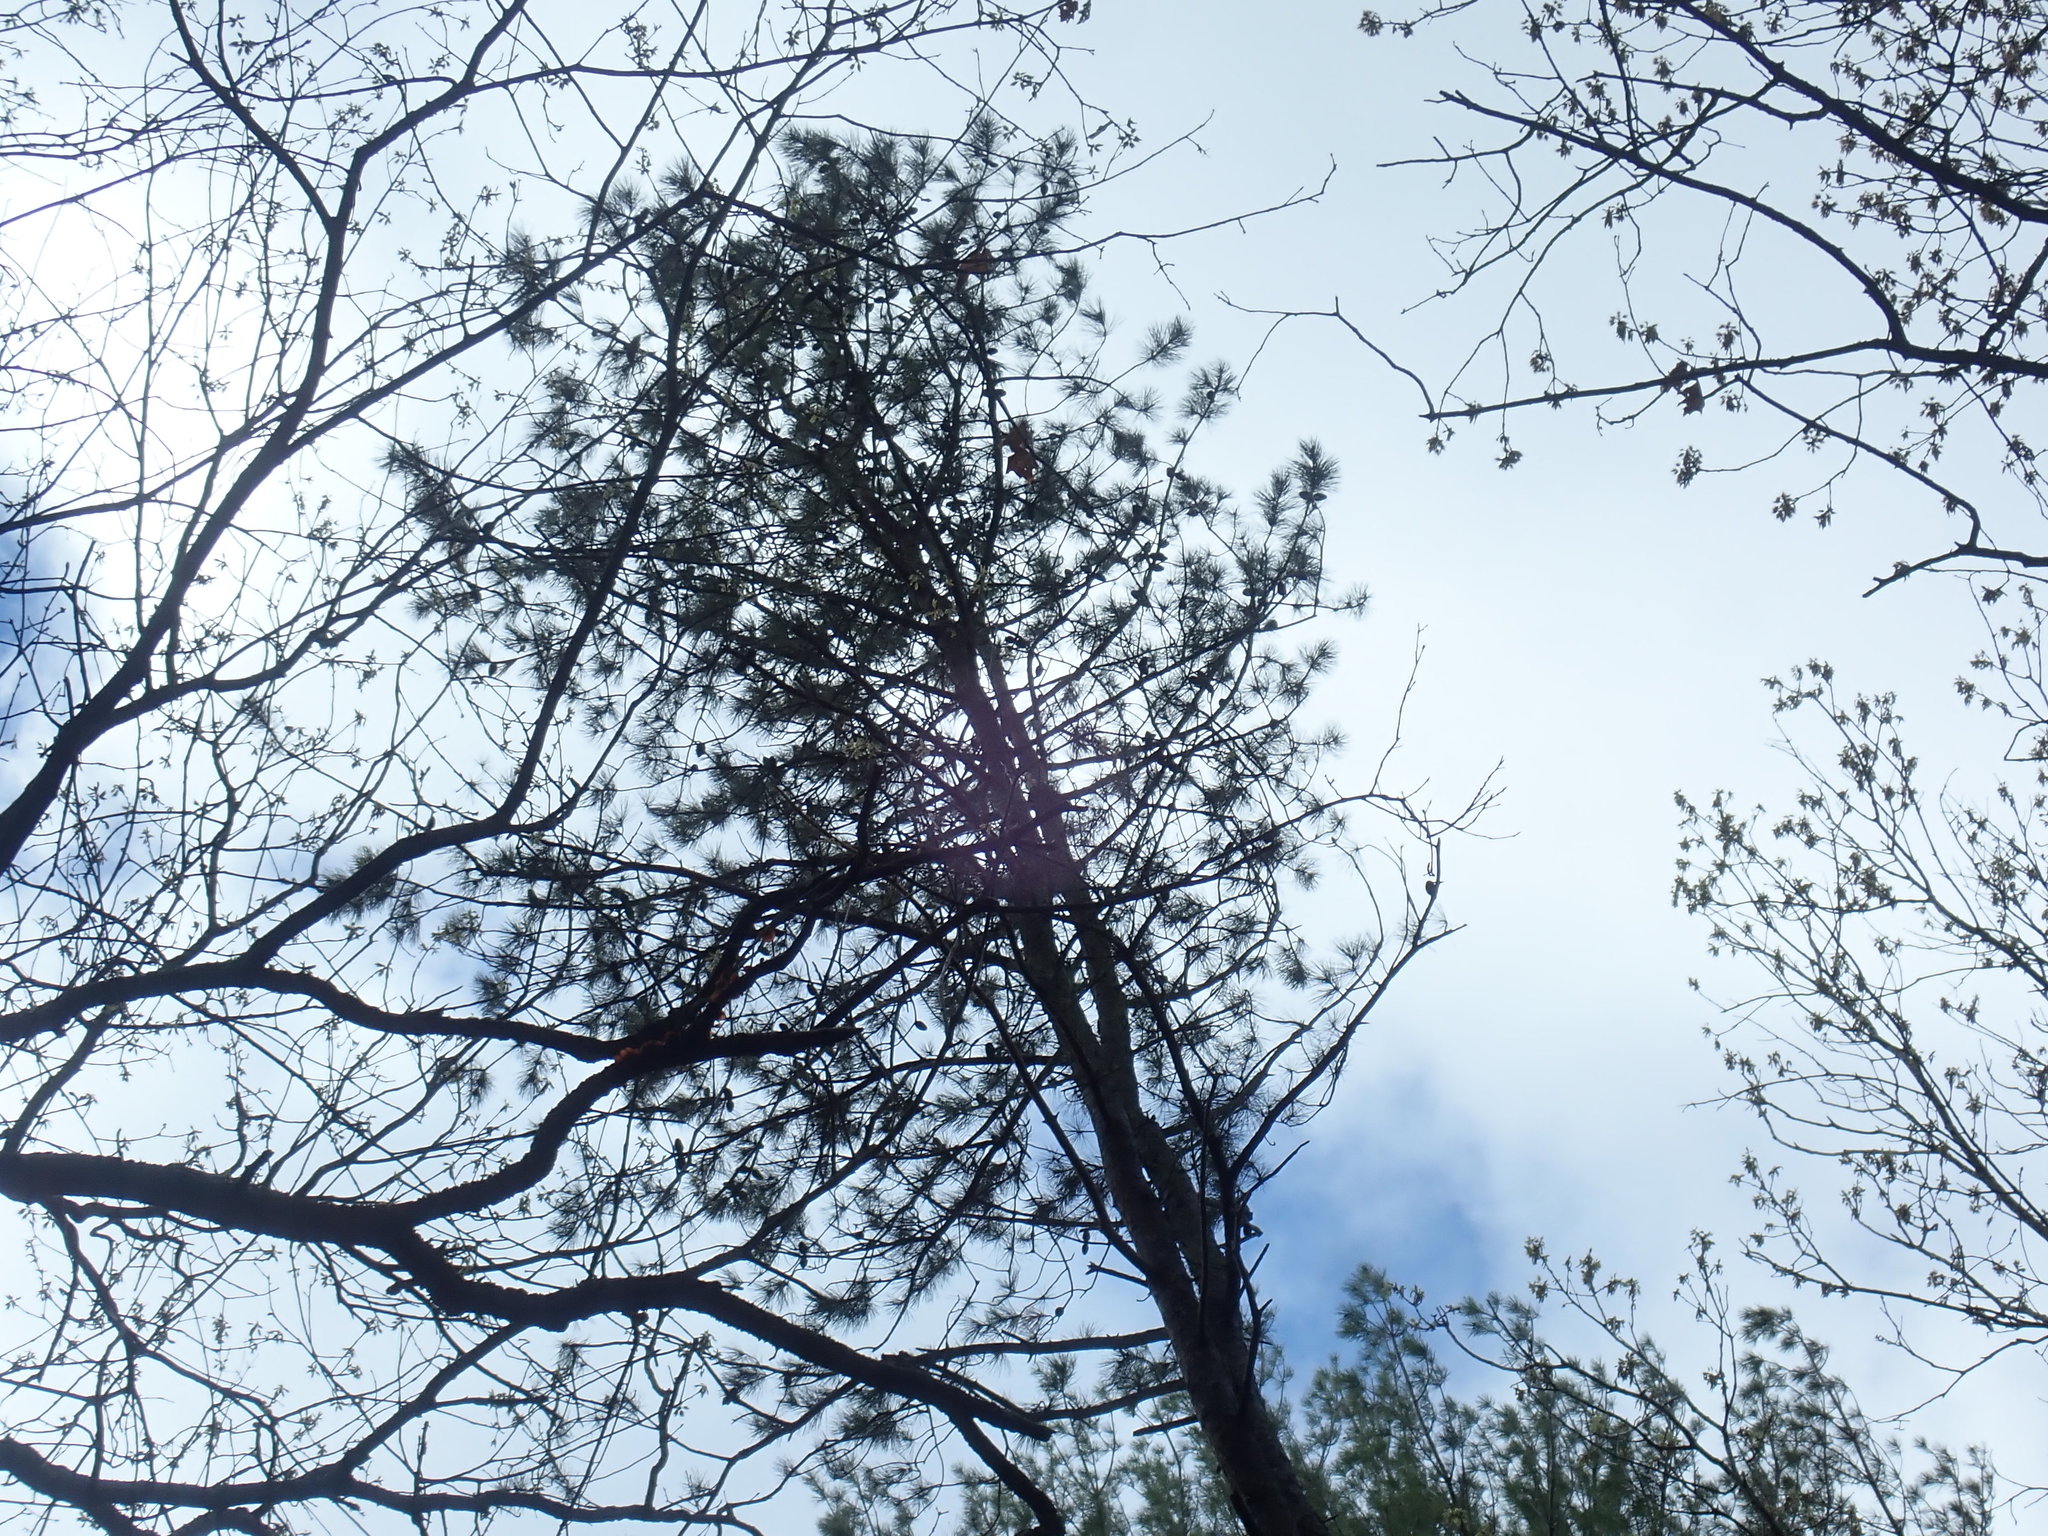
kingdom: Plantae
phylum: Tracheophyta
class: Pinopsida
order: Pinales
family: Pinaceae
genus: Pinus
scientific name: Pinus rigida
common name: Pitch pine
